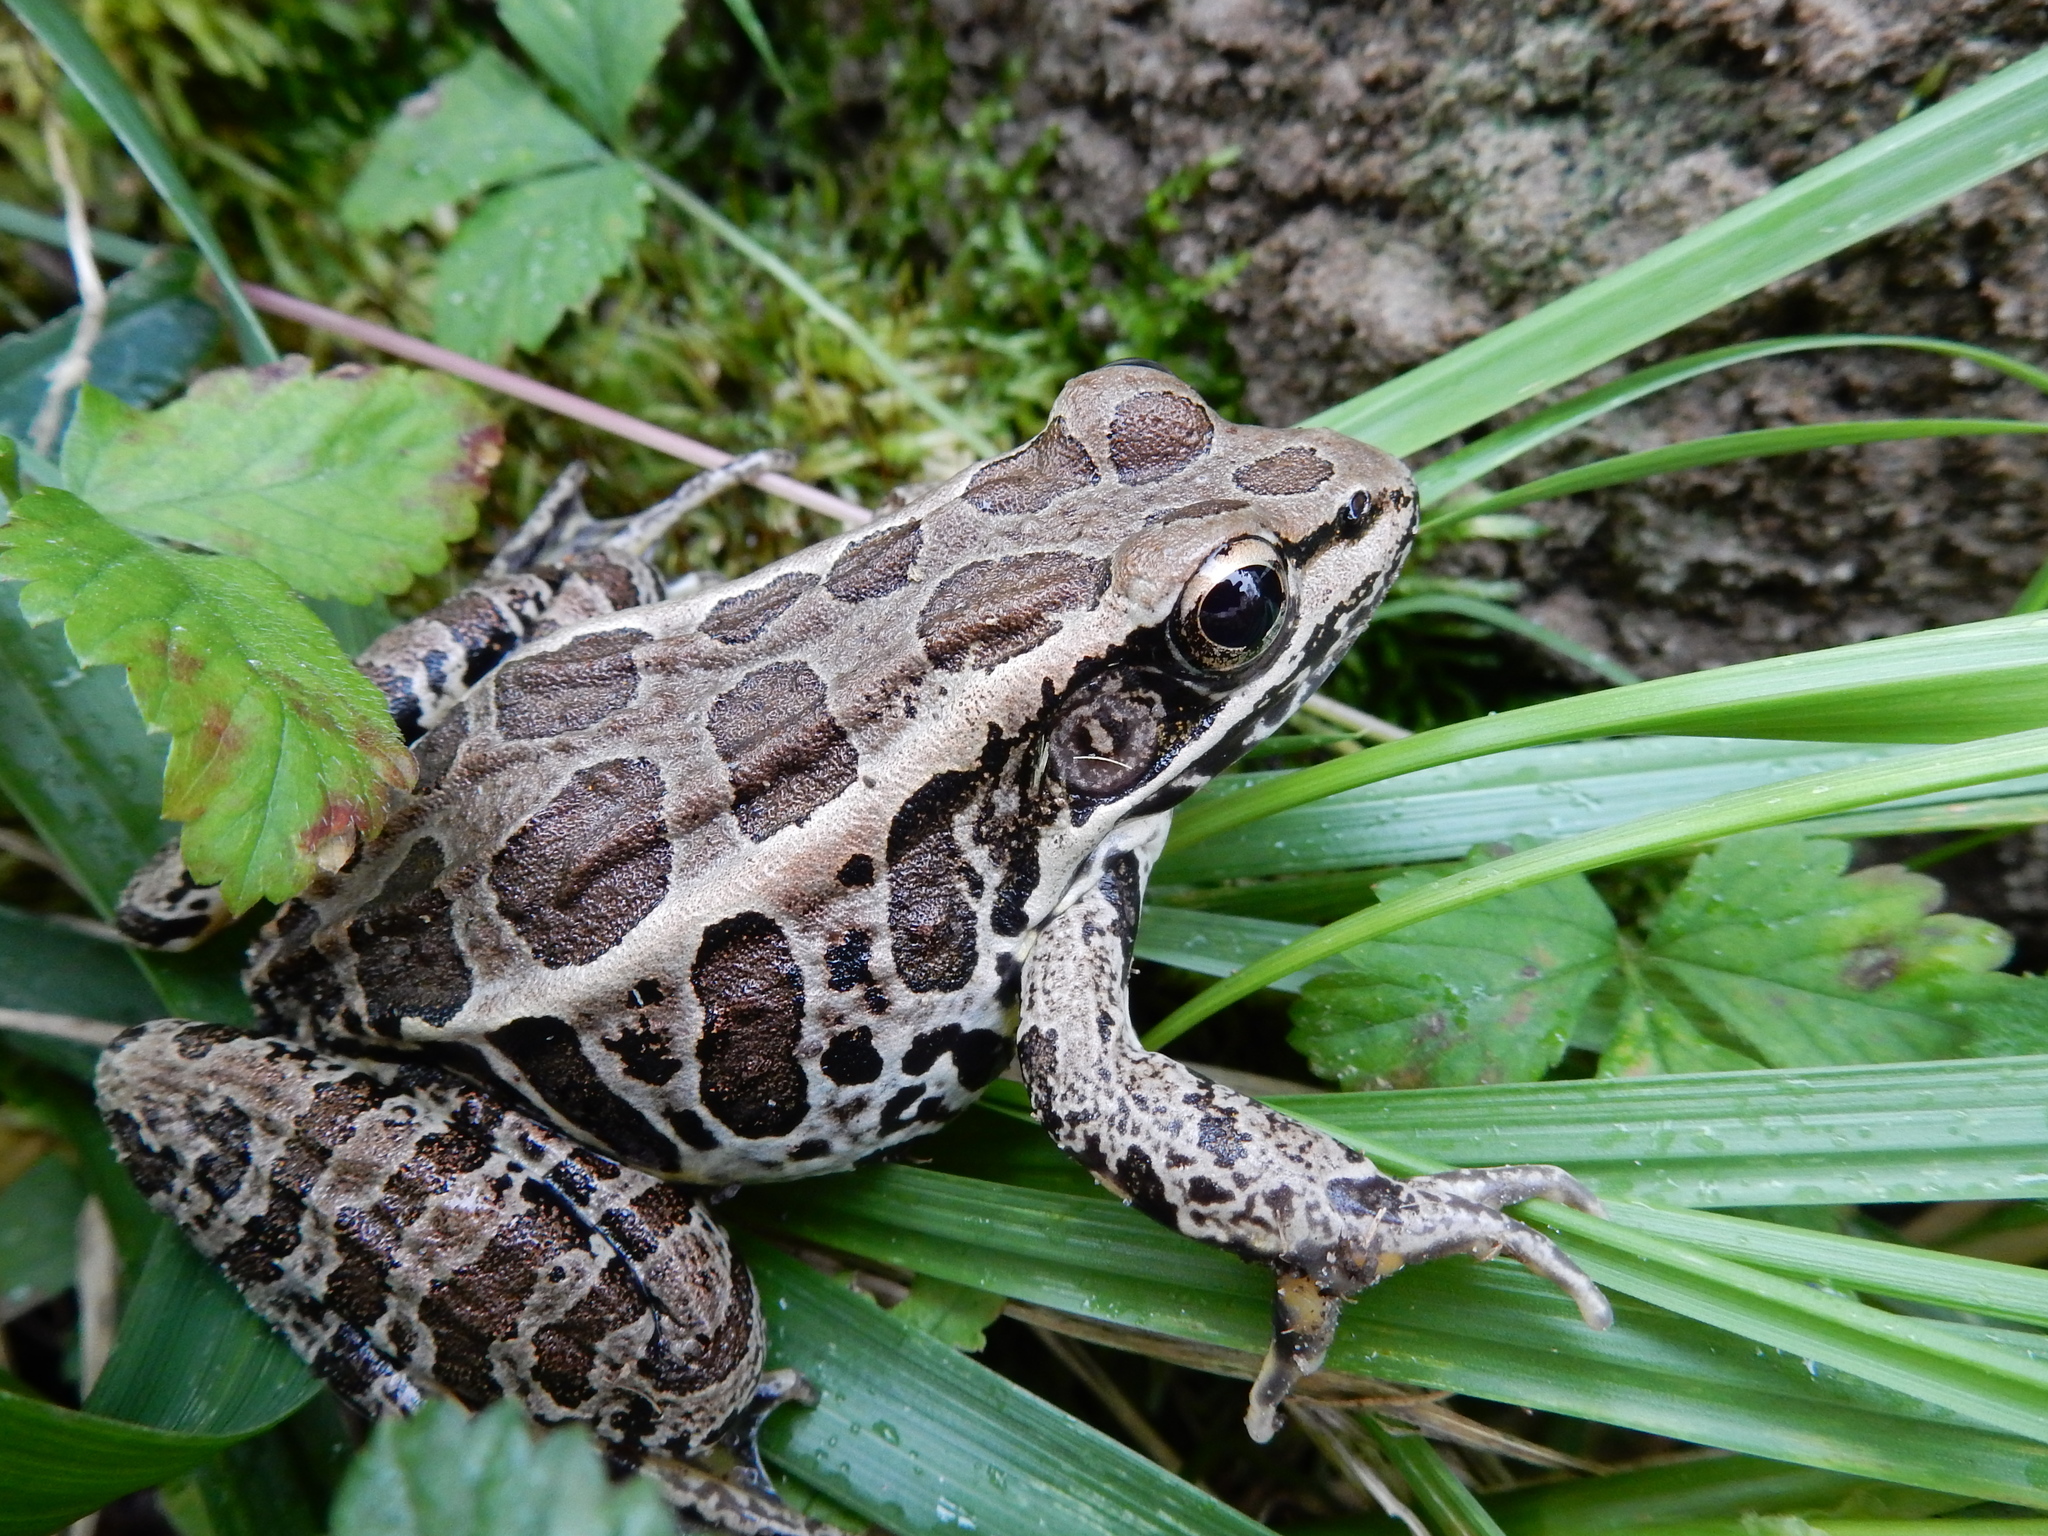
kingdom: Animalia
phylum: Chordata
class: Amphibia
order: Anura
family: Ranidae
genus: Lithobates
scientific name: Lithobates palustris
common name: Pickerel frog
